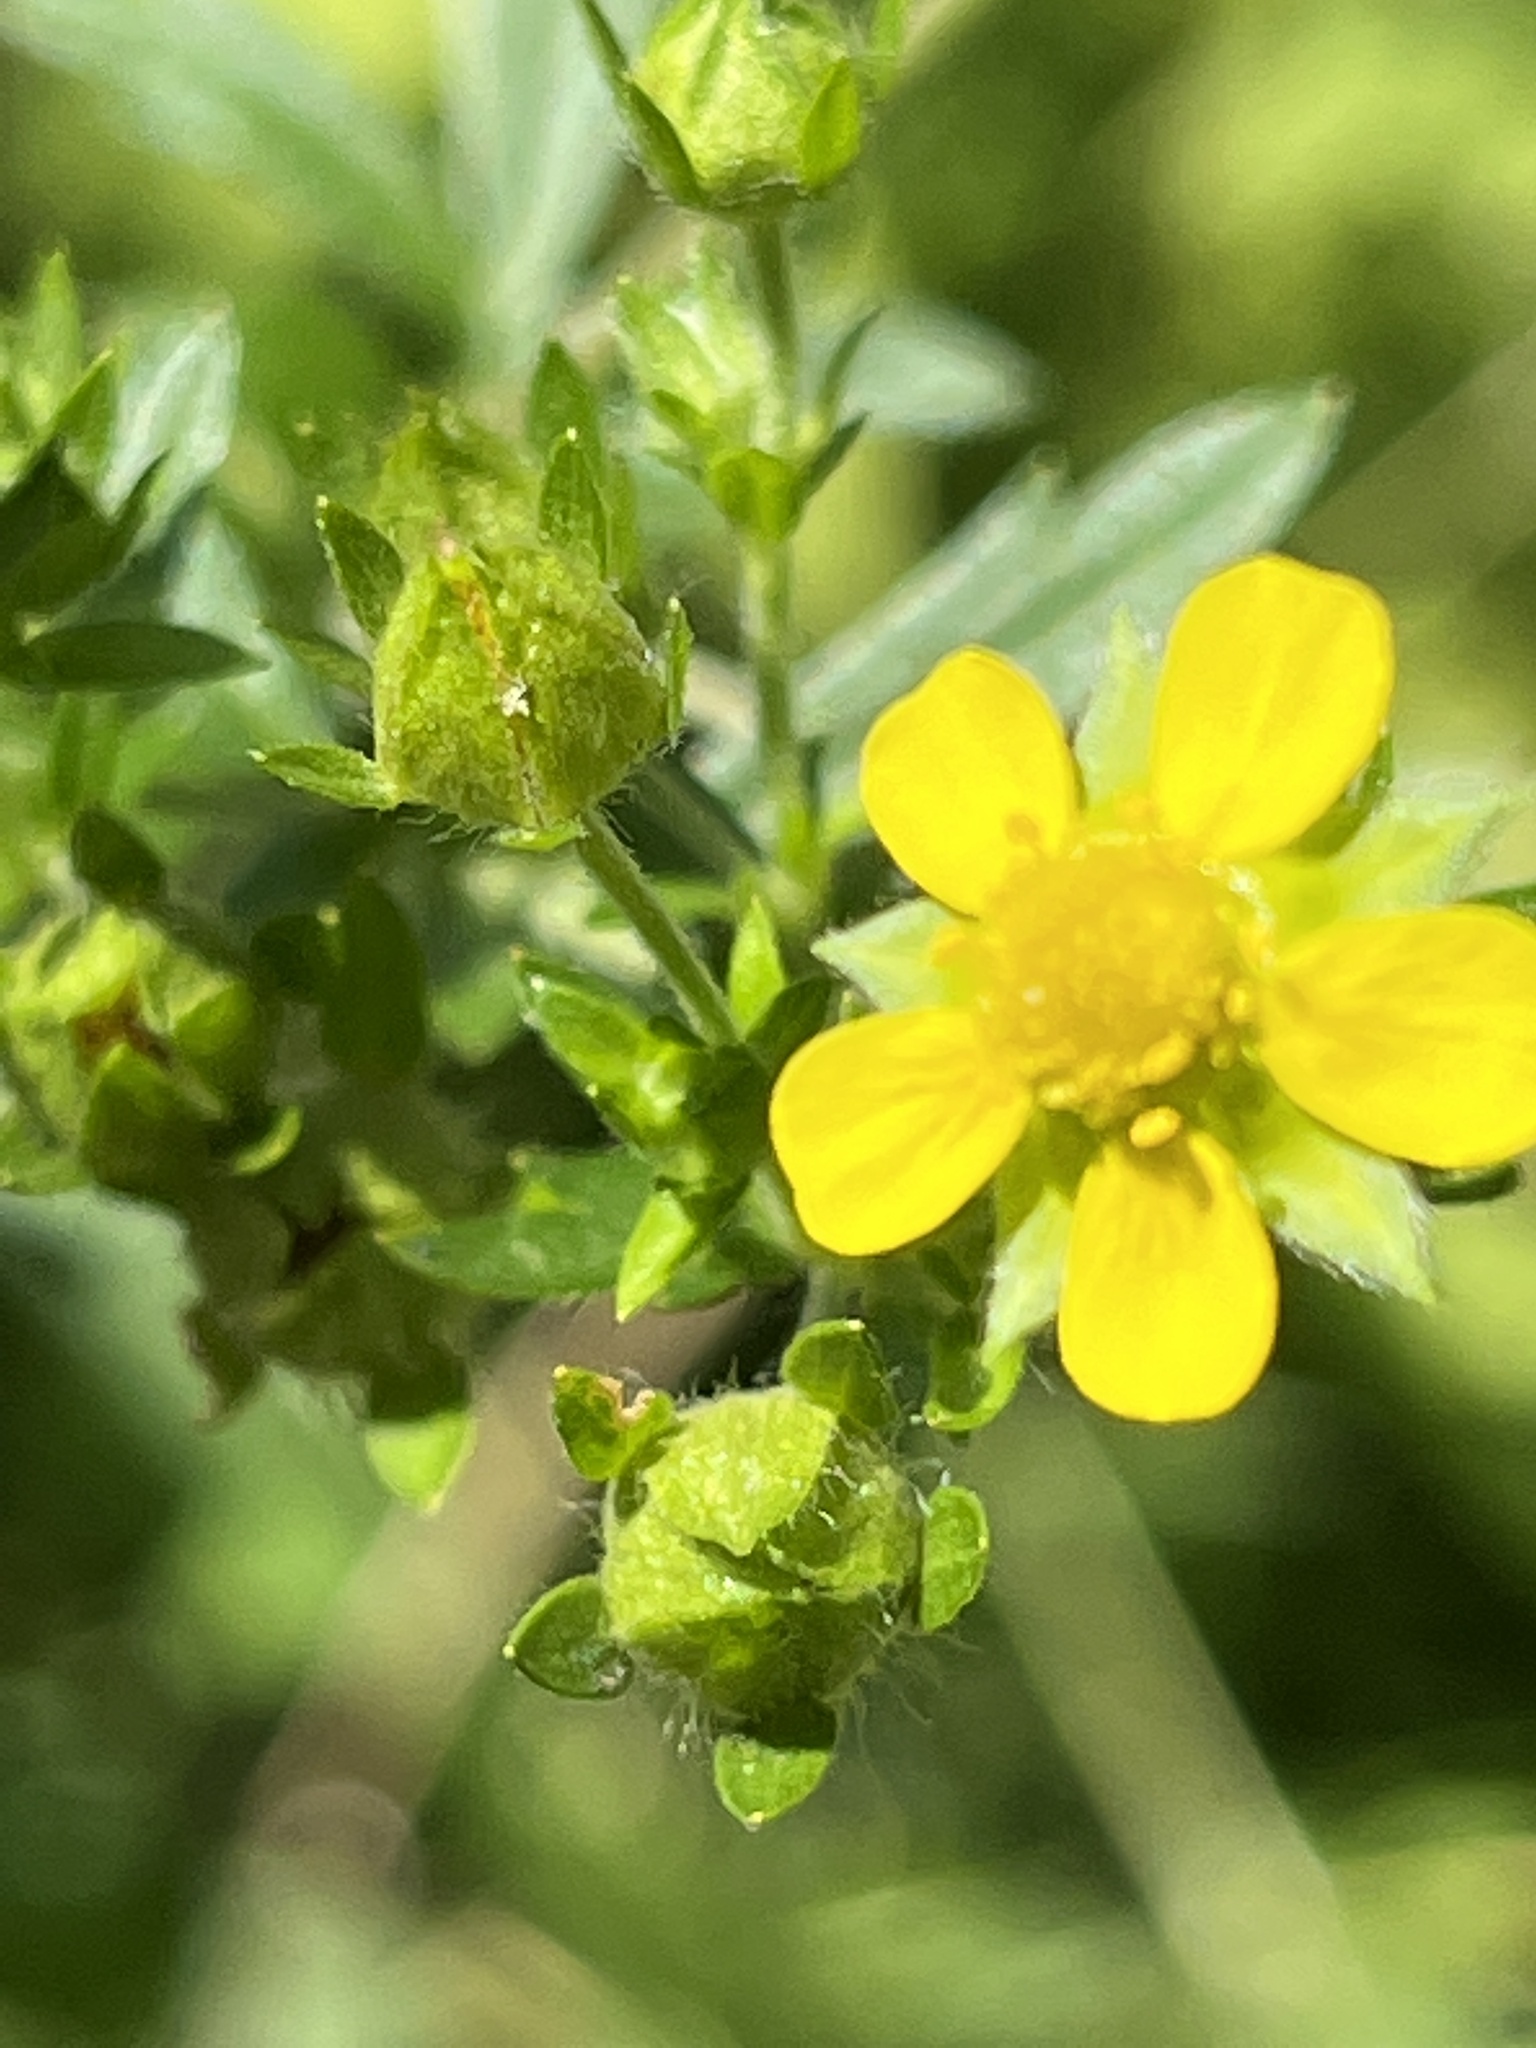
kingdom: Plantae
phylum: Tracheophyta
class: Magnoliopsida
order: Rosales
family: Rosaceae
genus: Potentilla
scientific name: Potentilla intermedia
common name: Downy cinquefoil
